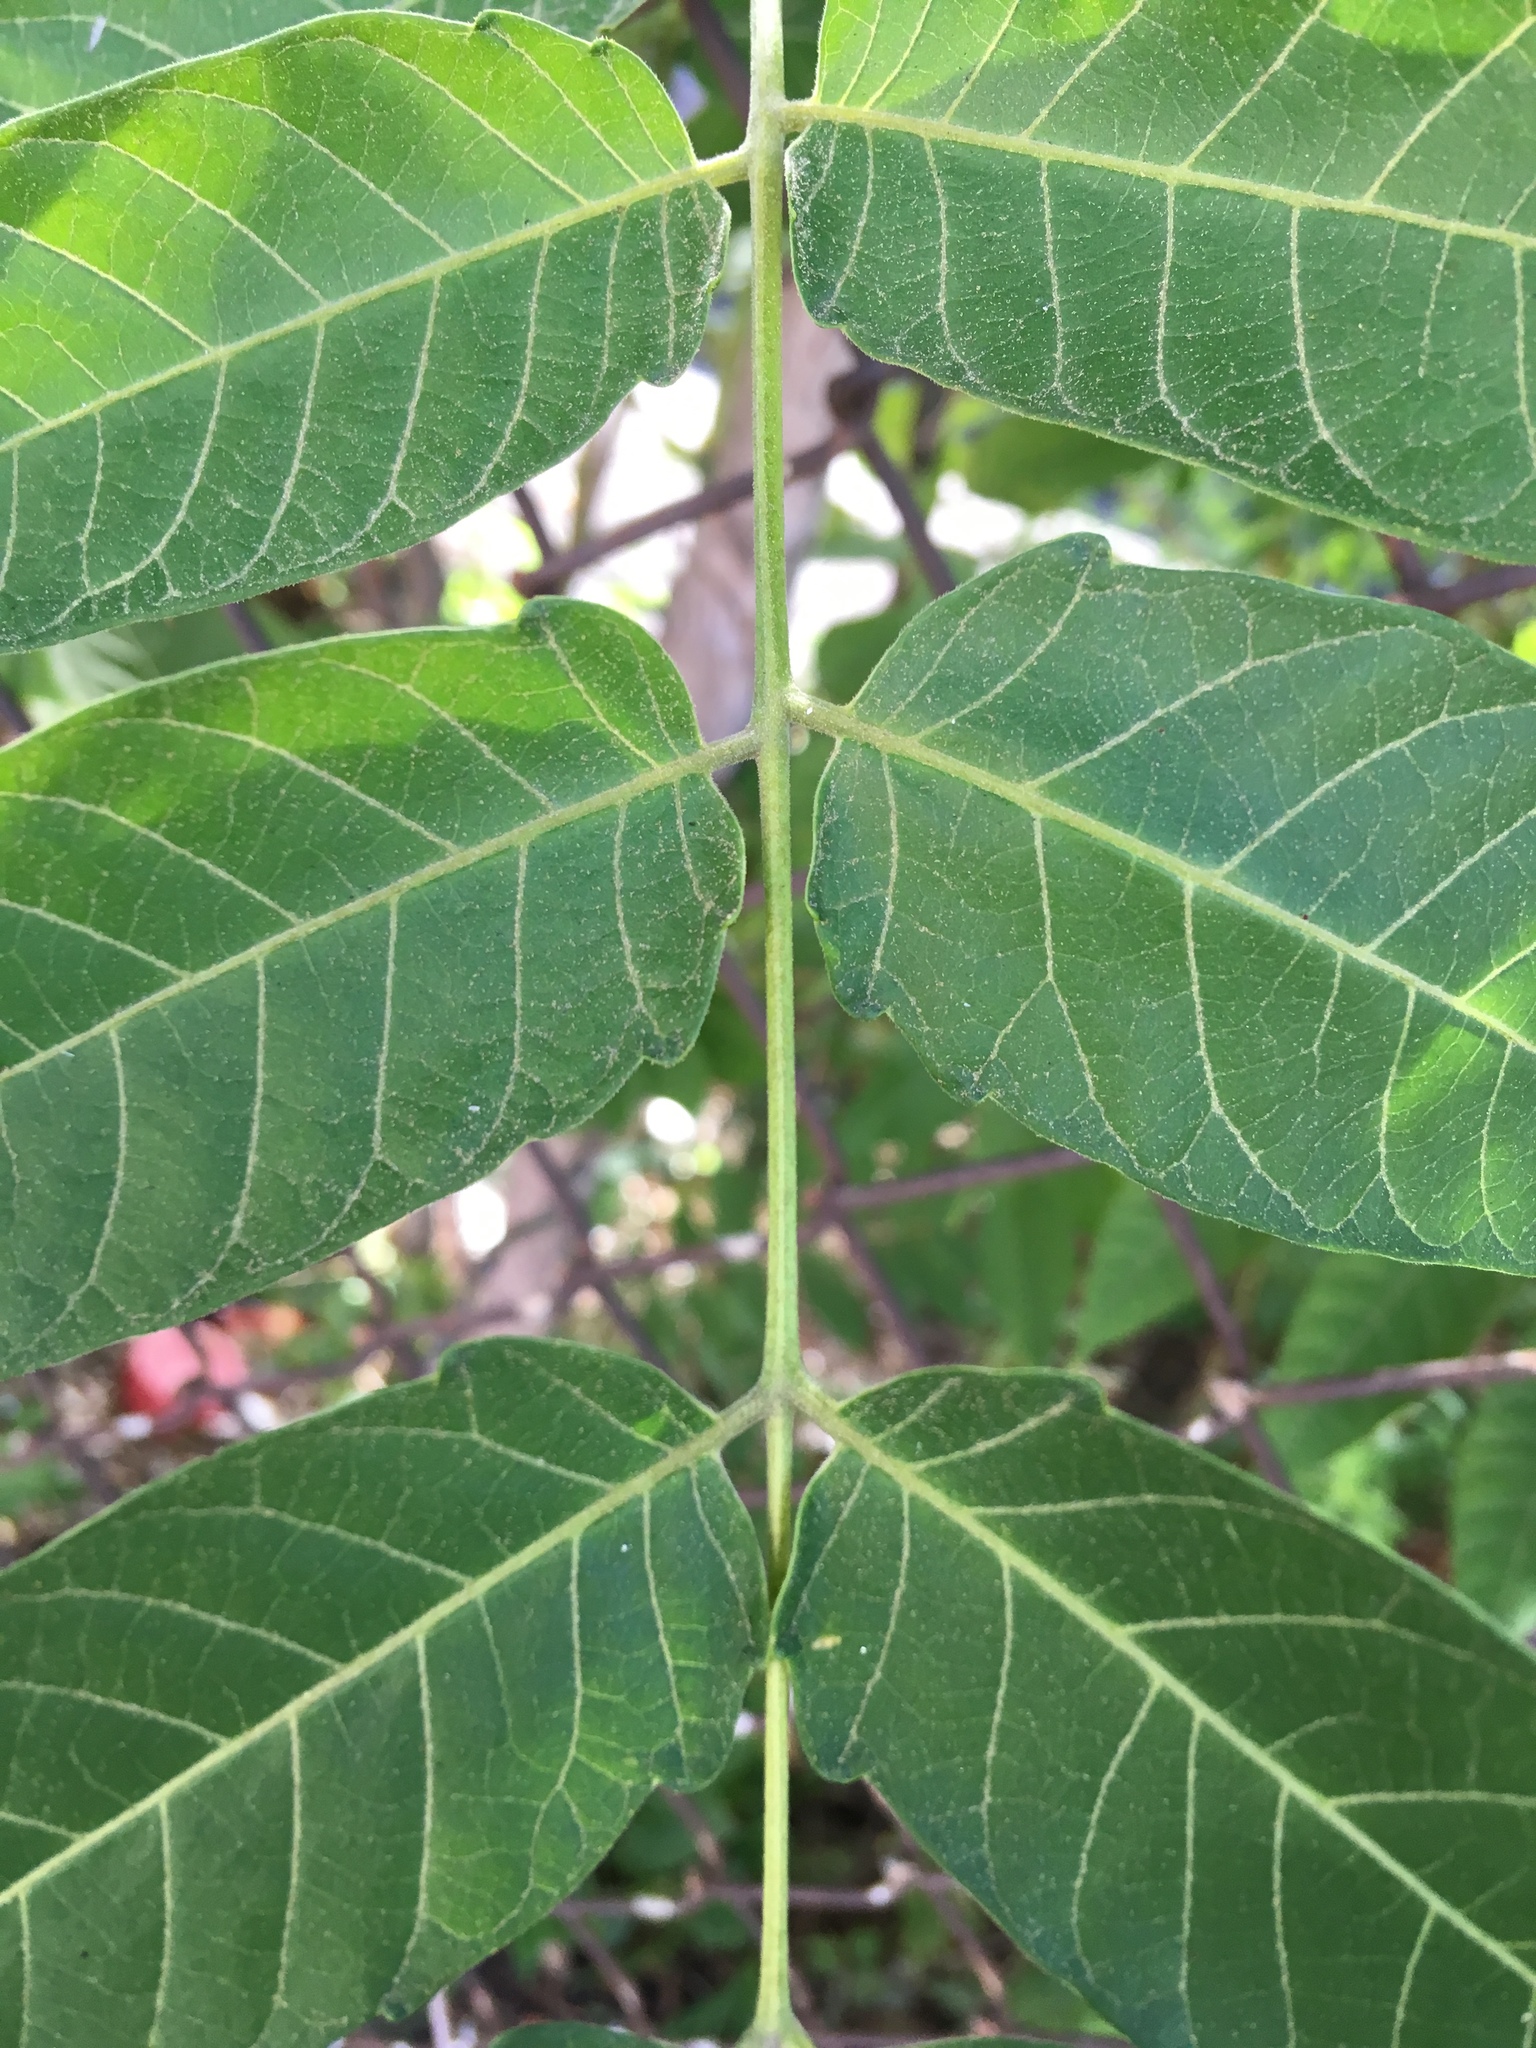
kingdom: Plantae
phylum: Tracheophyta
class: Magnoliopsida
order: Sapindales
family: Simaroubaceae
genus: Ailanthus
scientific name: Ailanthus altissima
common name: Tree-of-heaven
